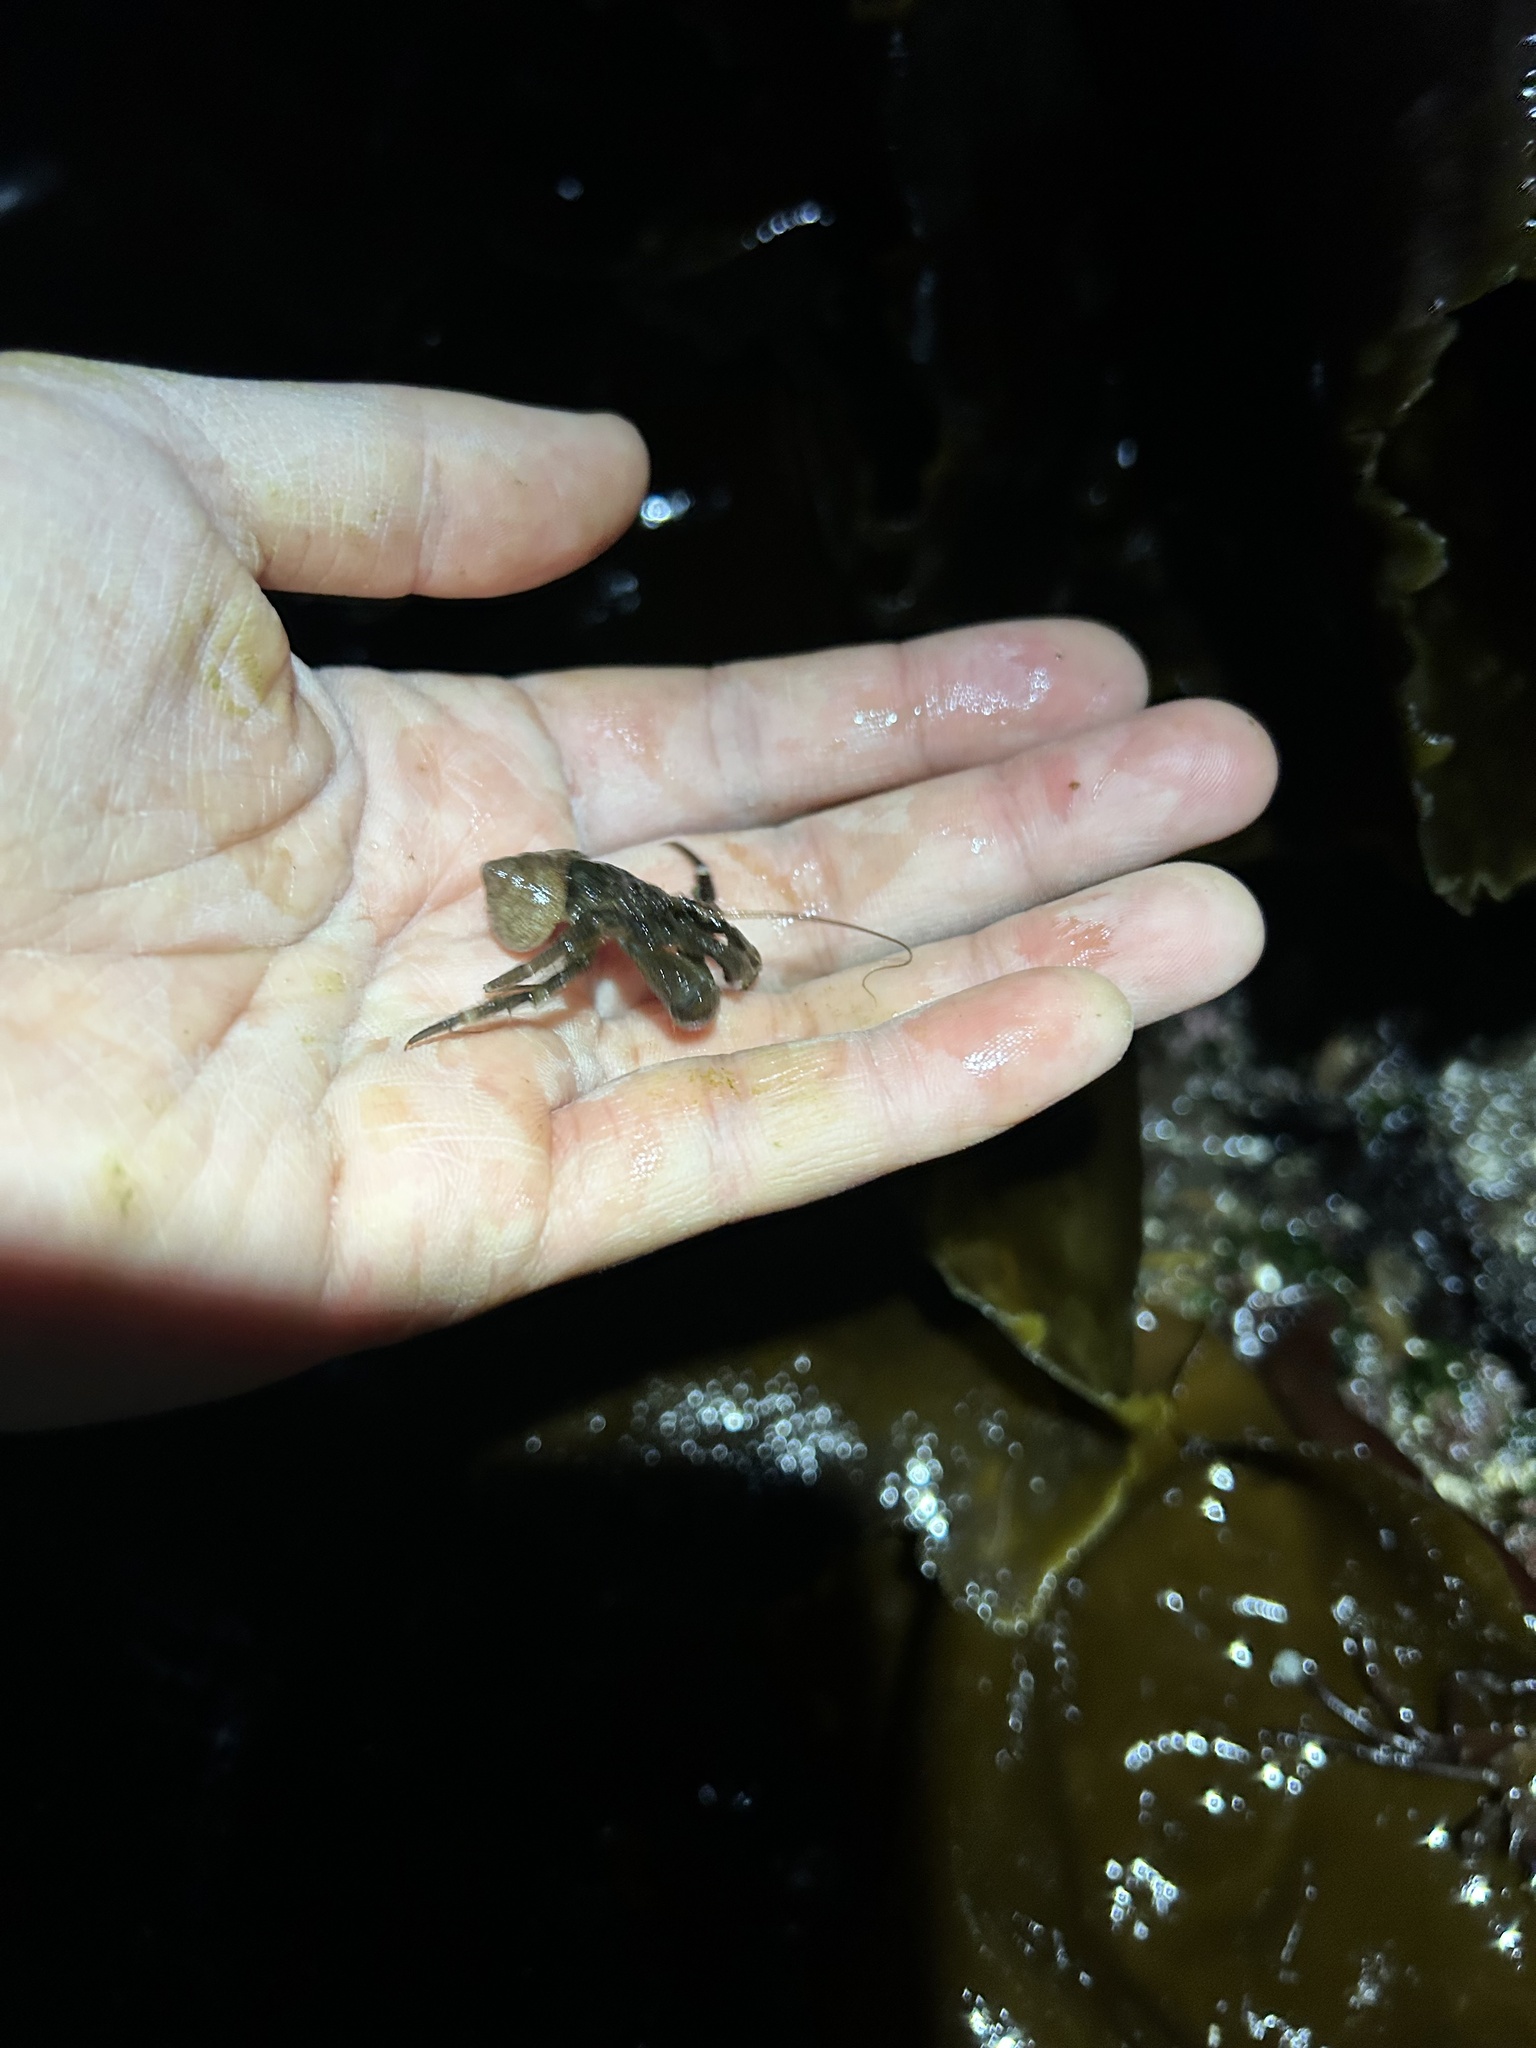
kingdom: Animalia
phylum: Arthropoda
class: Malacostraca
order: Decapoda
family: Paguridae
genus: Pagurus
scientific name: Pagurus hirsutiusculus
